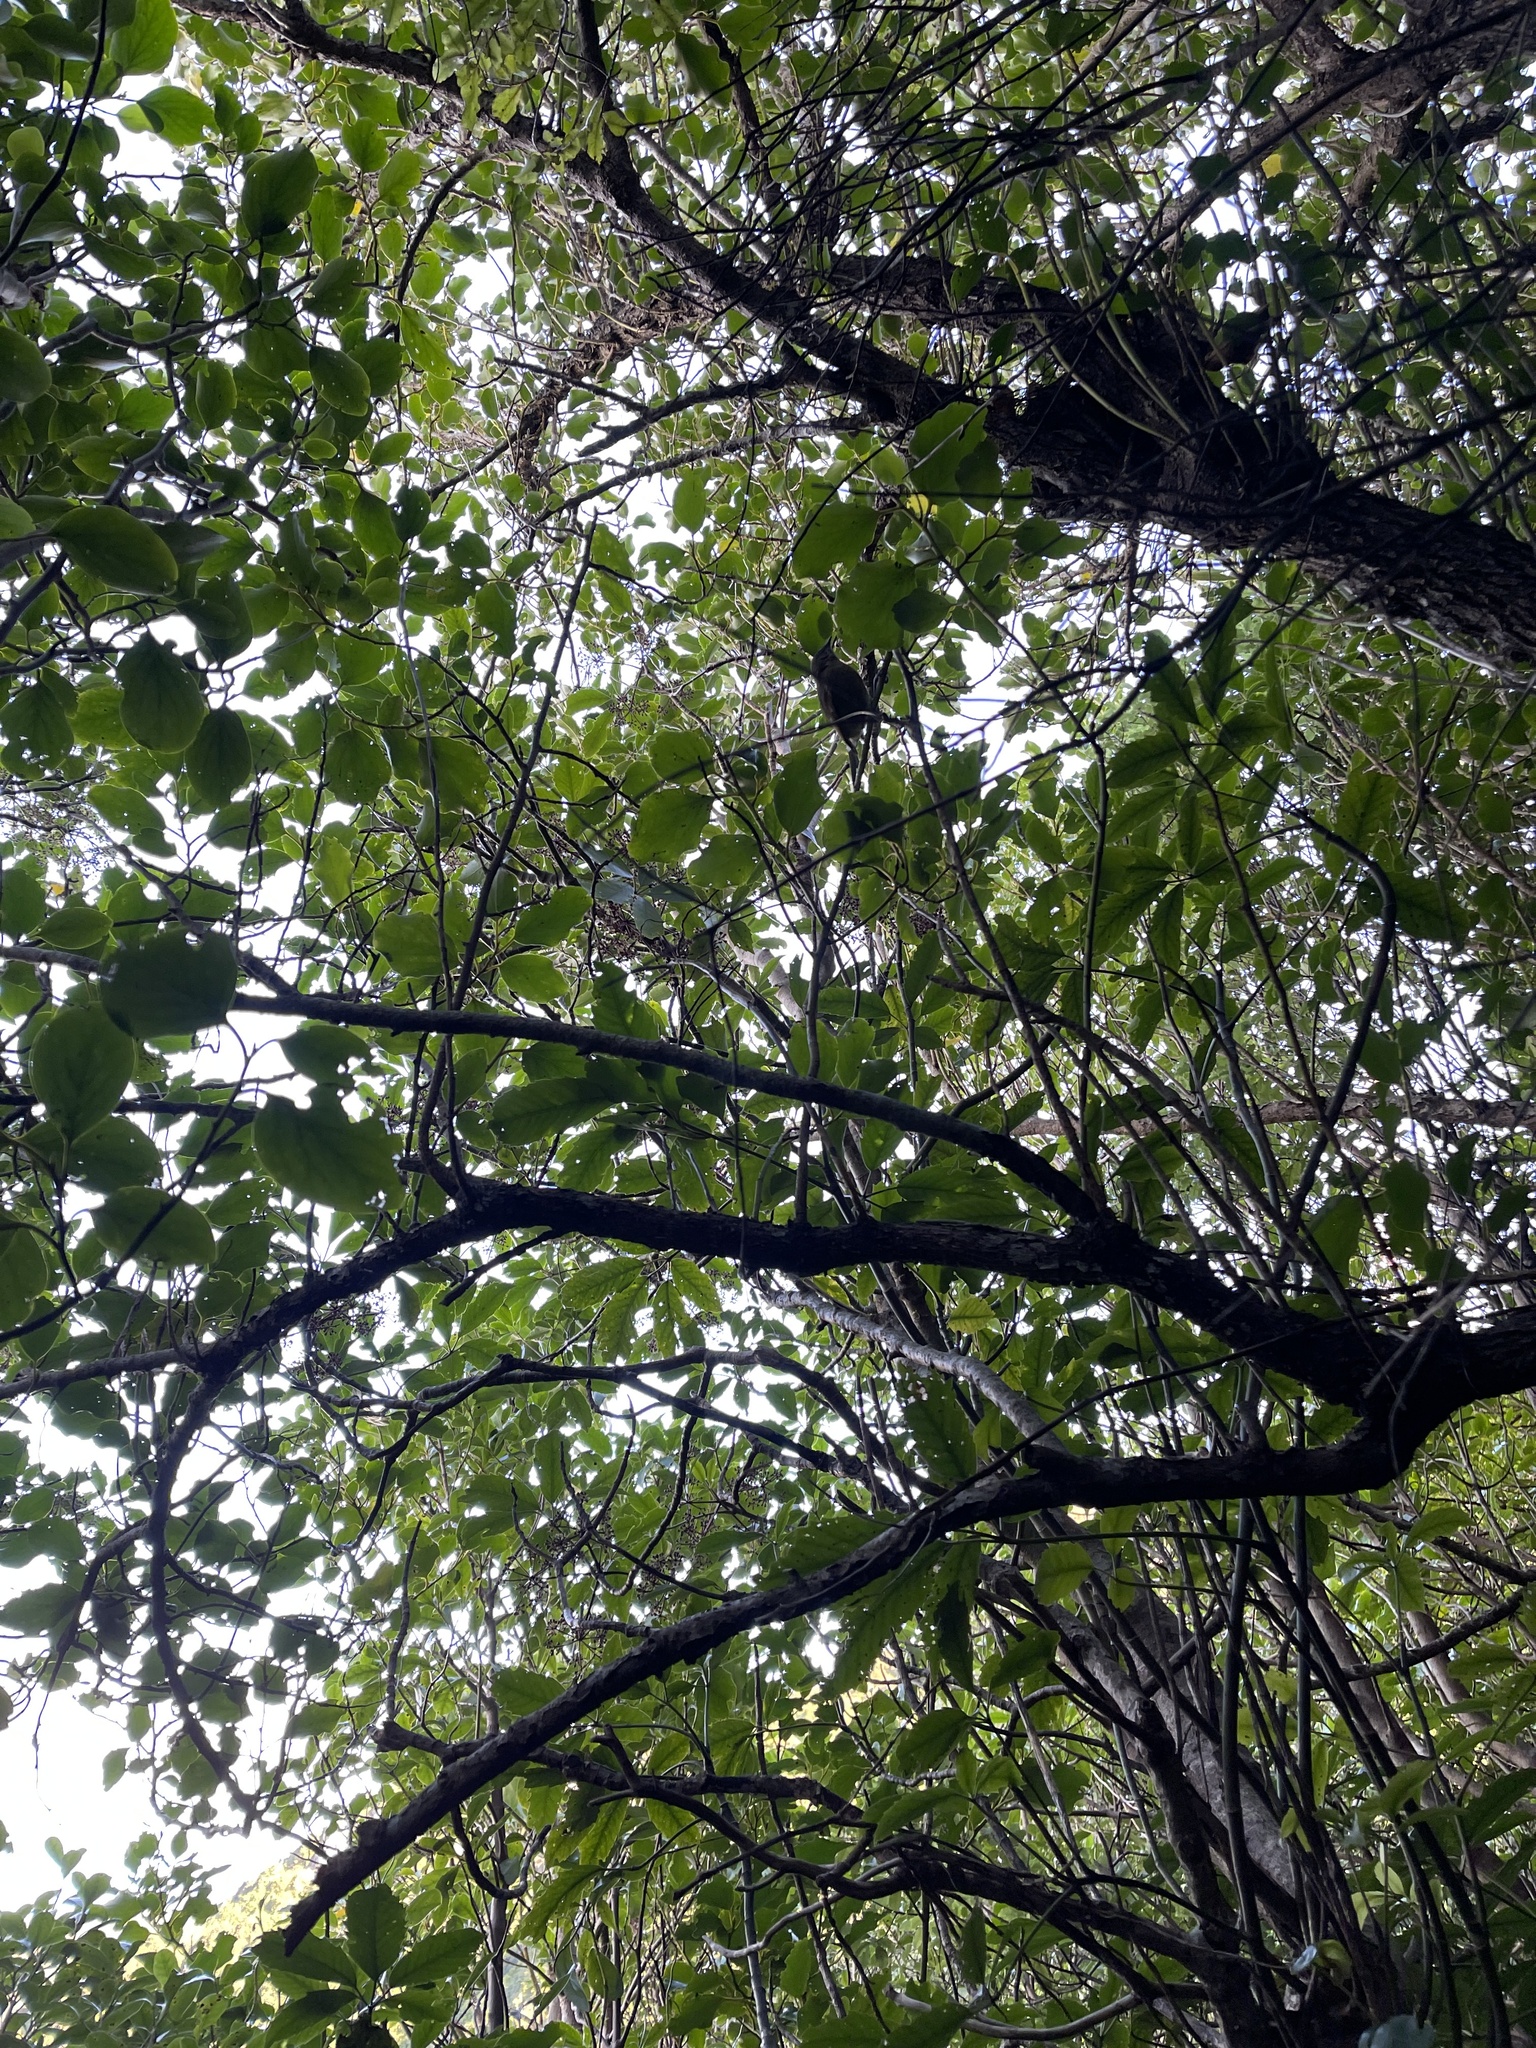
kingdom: Animalia
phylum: Chordata
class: Aves
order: Passeriformes
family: Meliphagidae
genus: Anthornis
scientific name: Anthornis melanura
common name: New zealand bellbird
